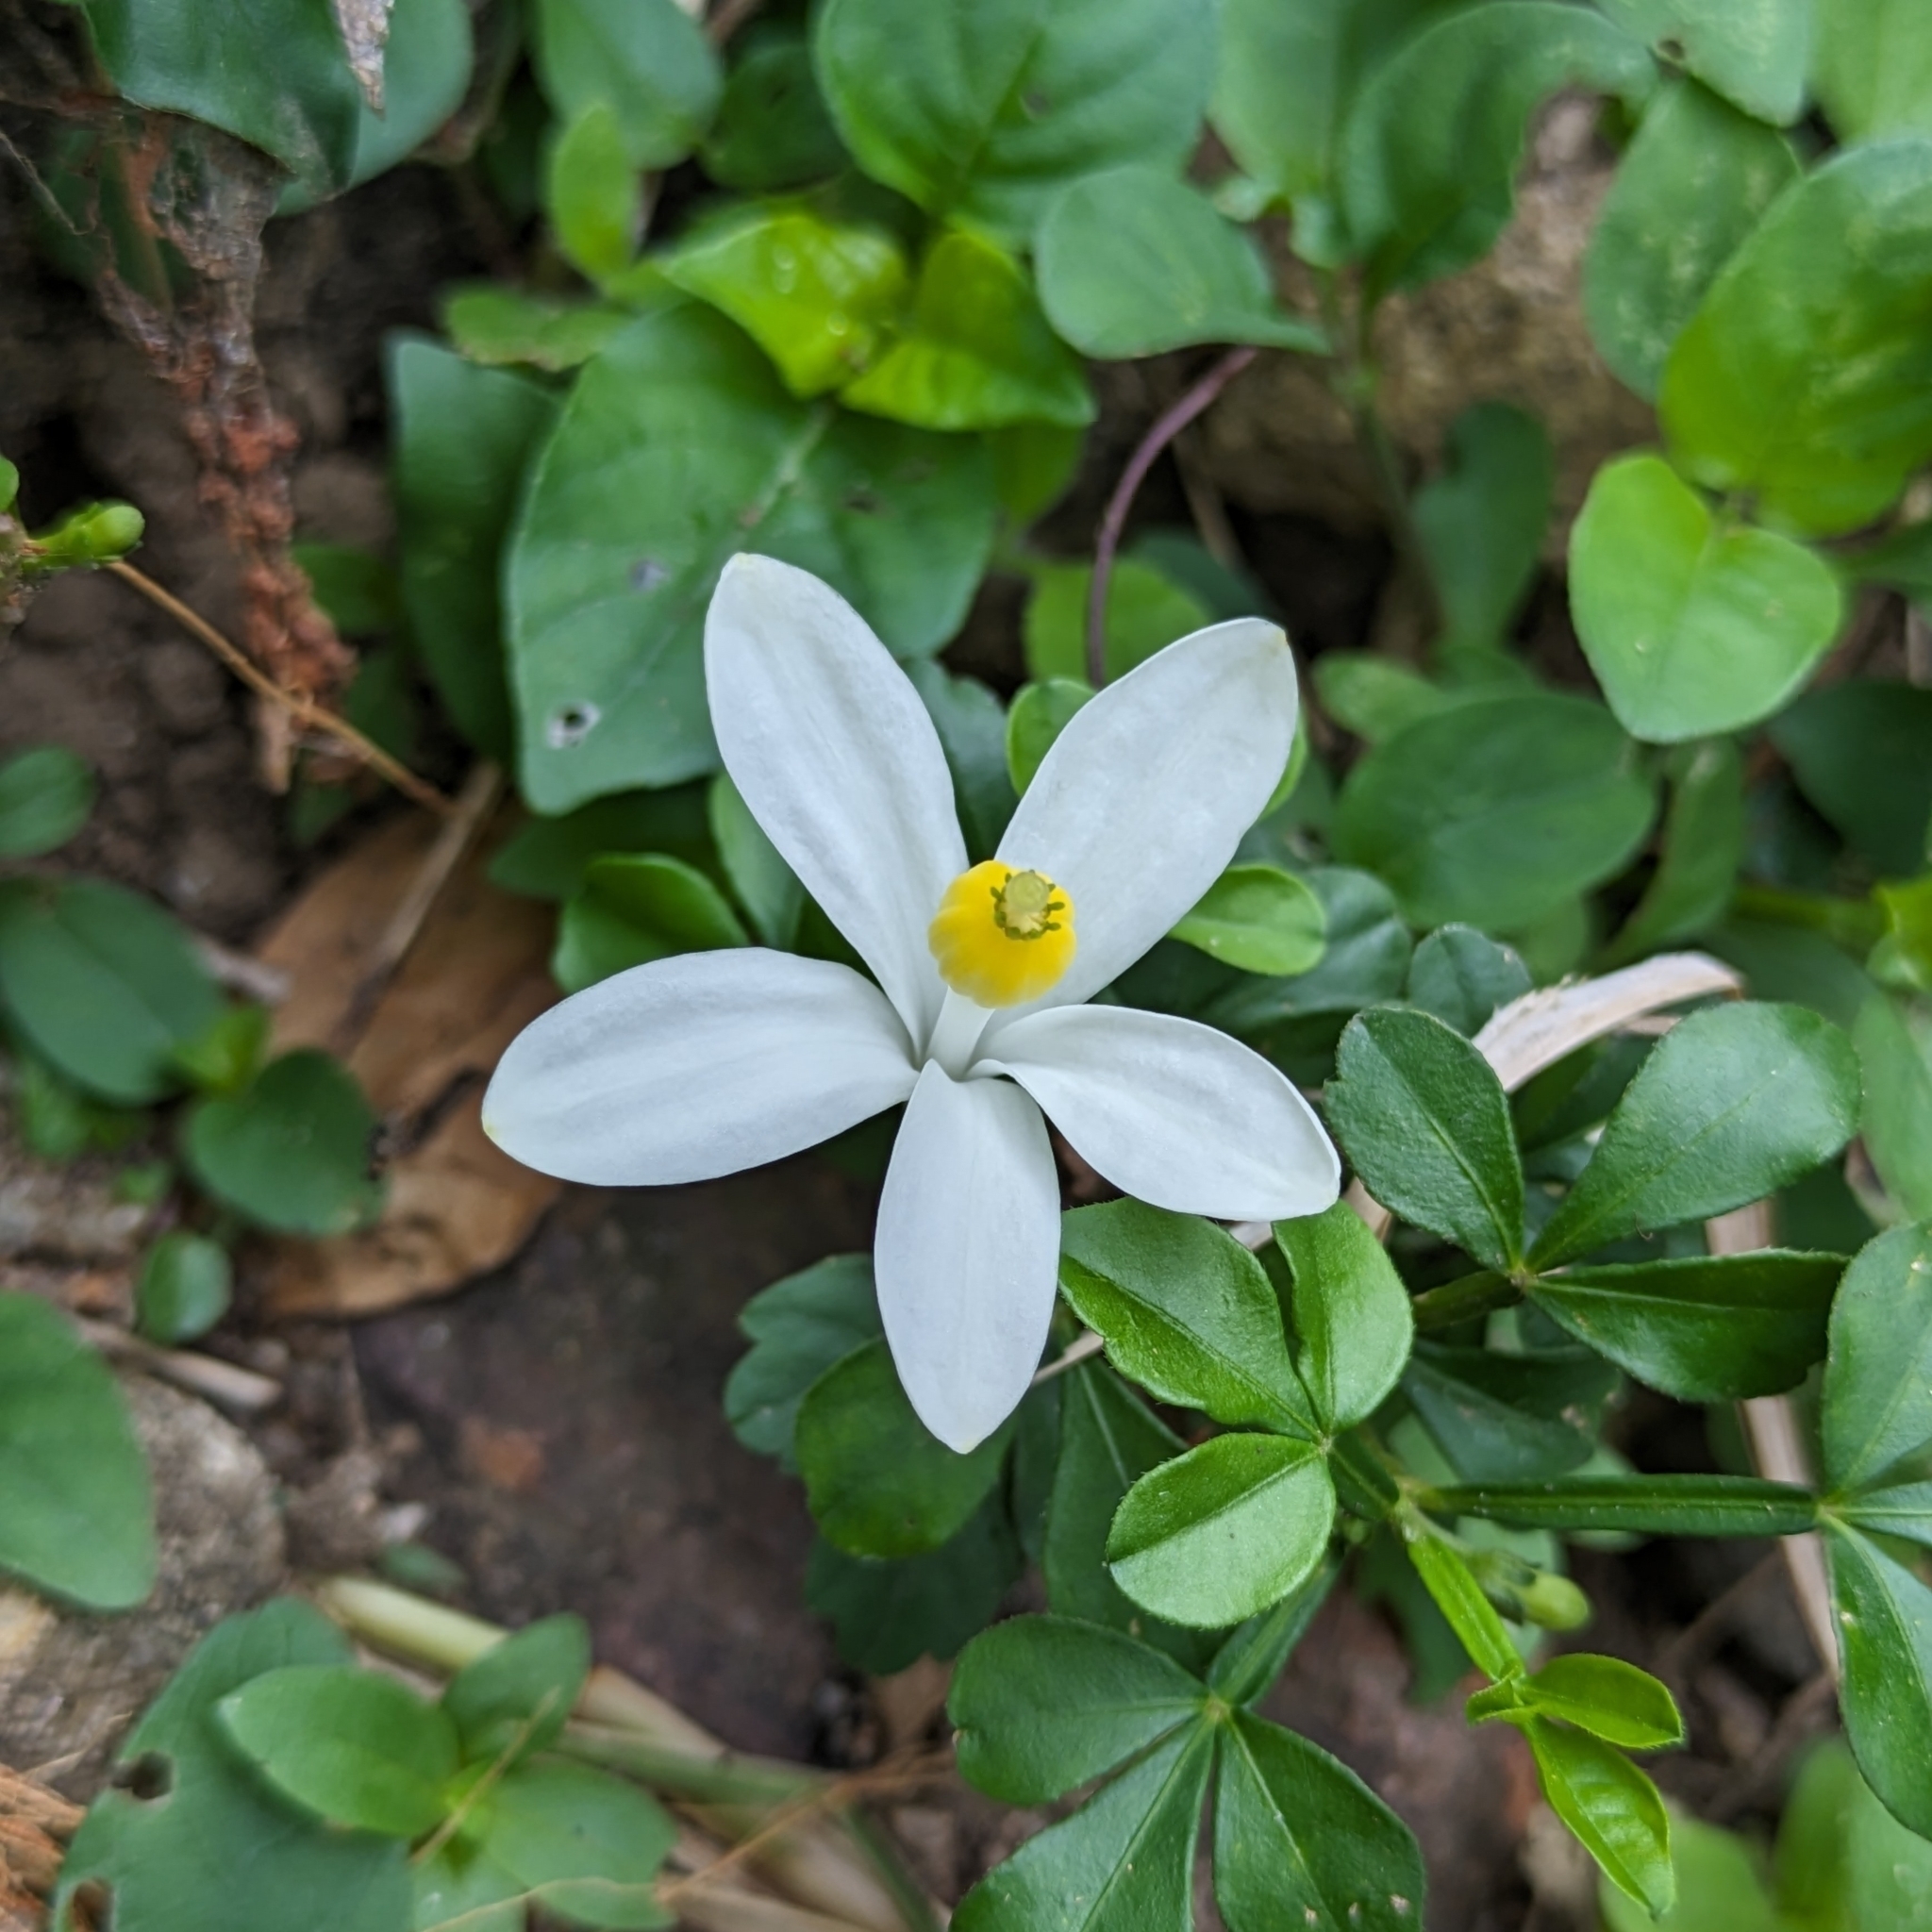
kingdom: Plantae
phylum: Tracheophyta
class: Magnoliopsida
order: Sapindales
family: Meliaceae
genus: Naregamia
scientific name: Naregamia alata
